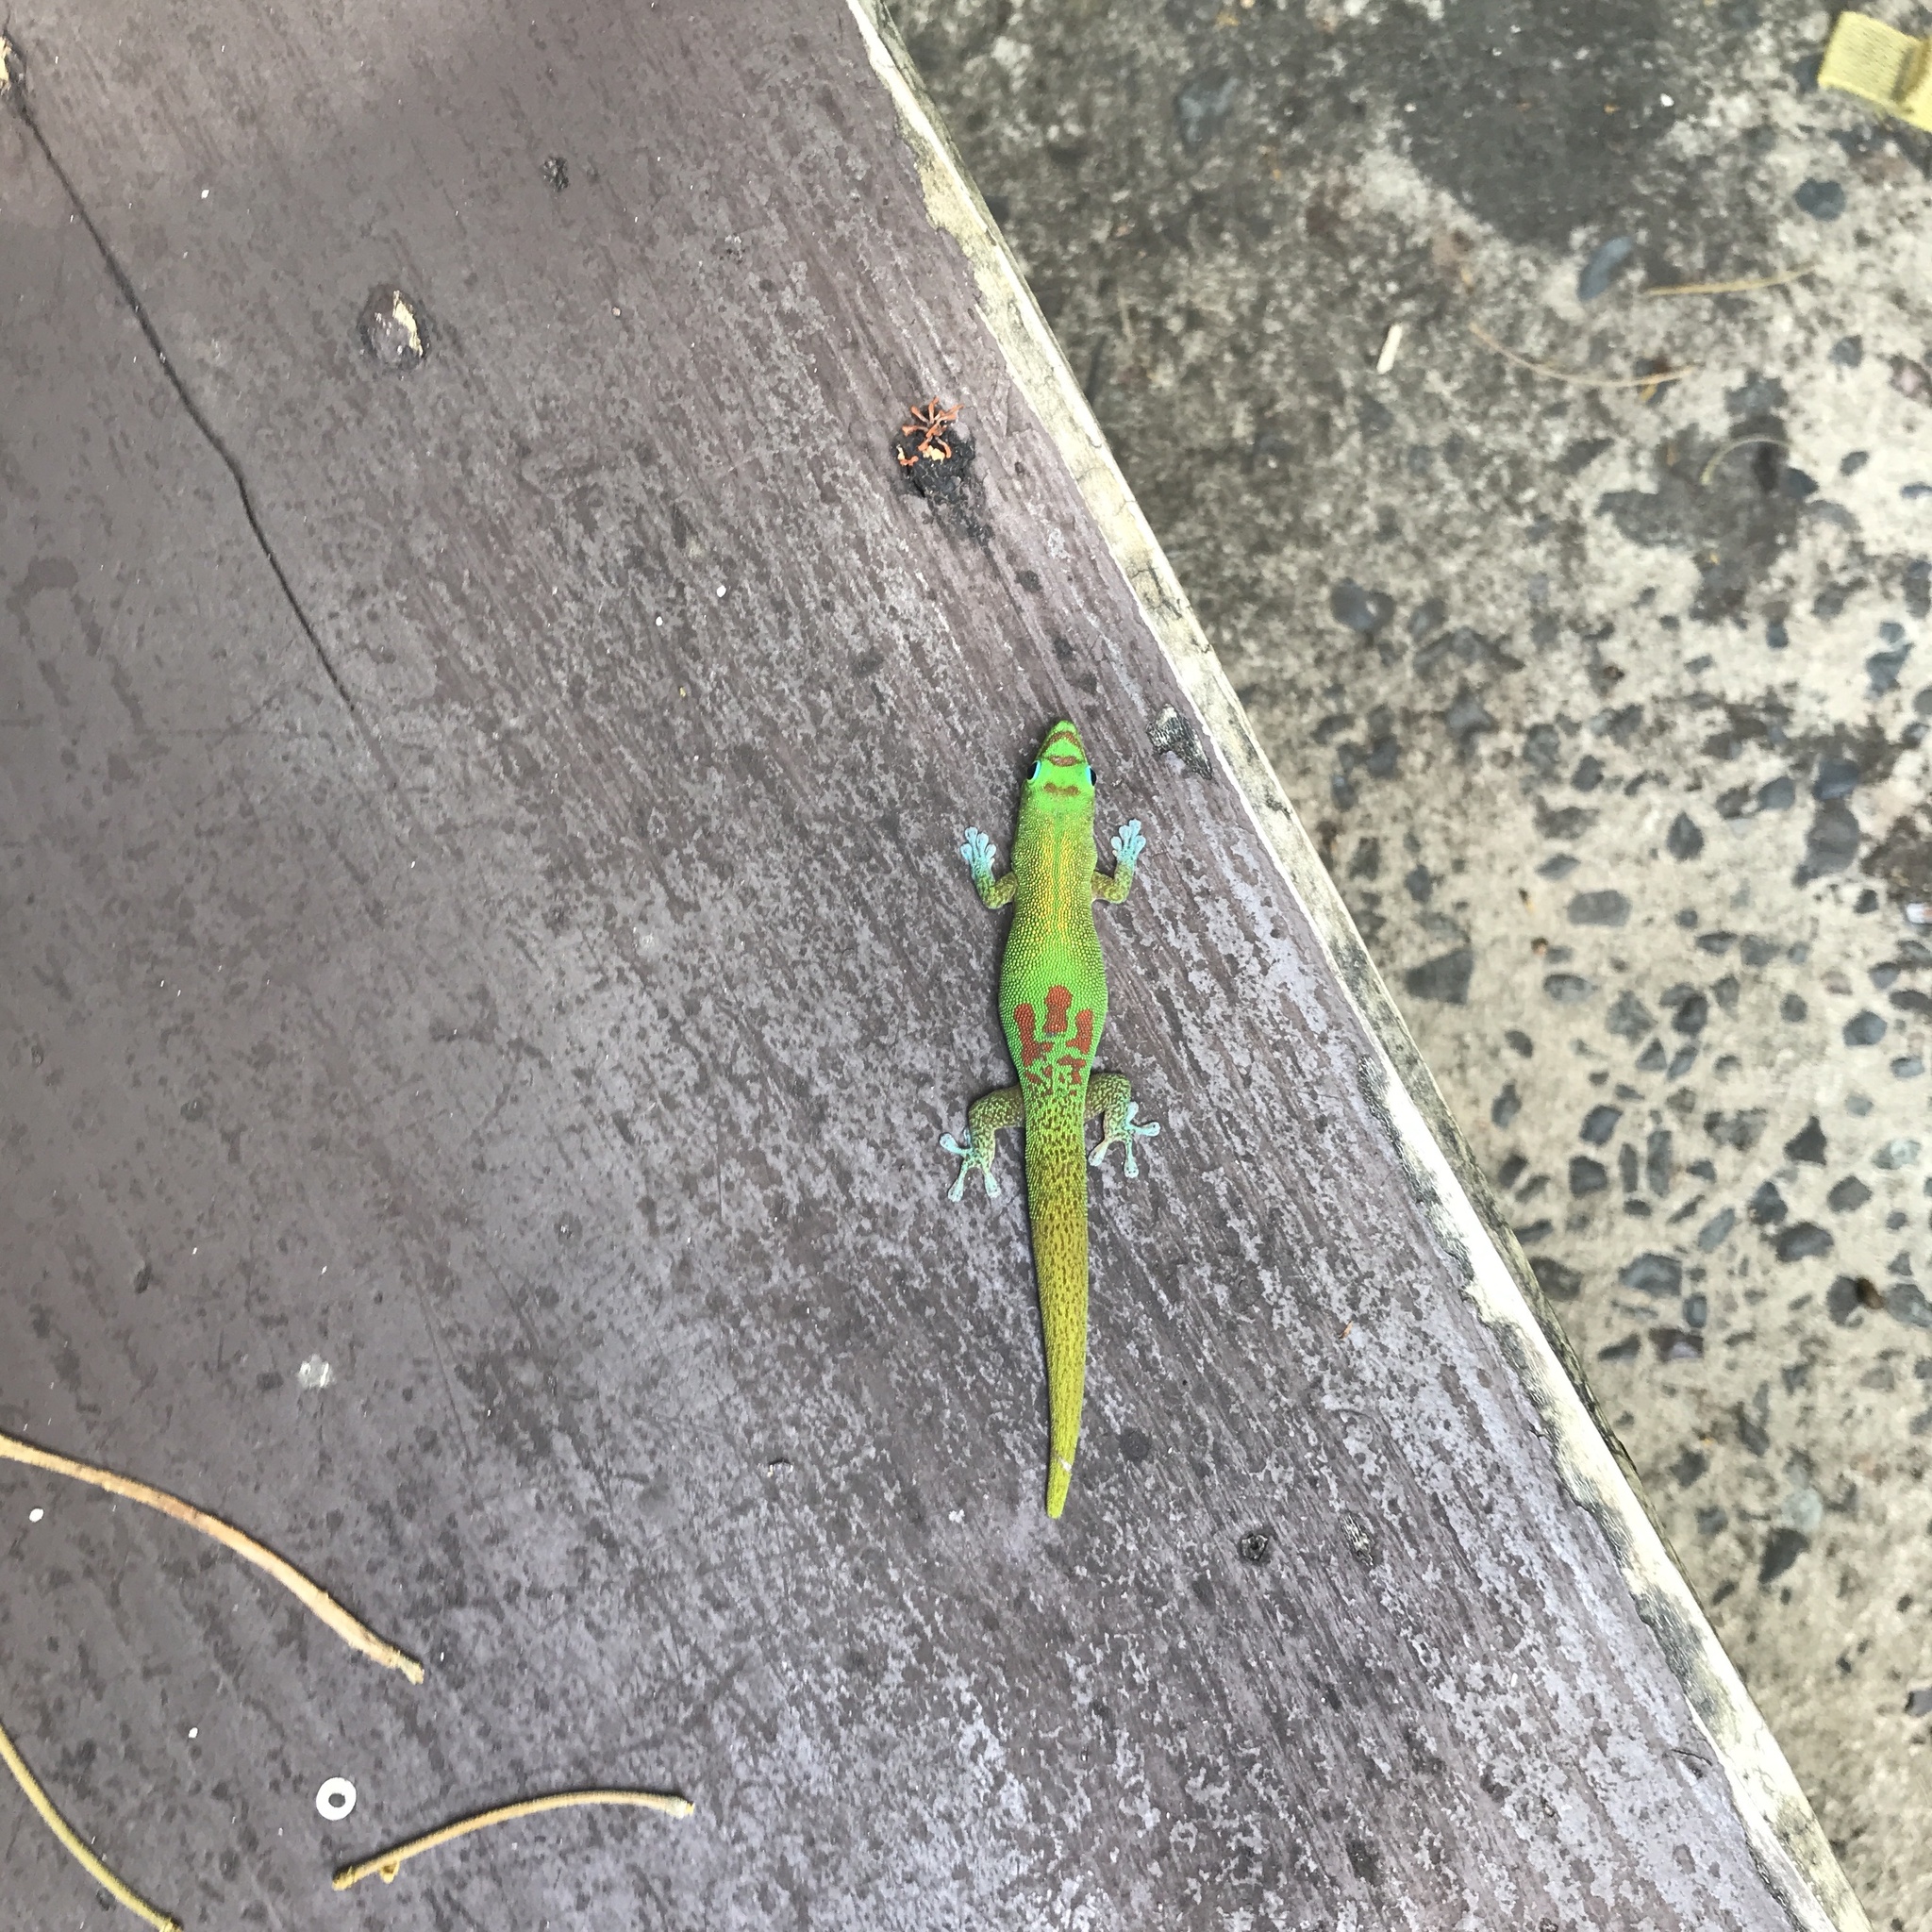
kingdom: Animalia
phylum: Chordata
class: Squamata
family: Gekkonidae
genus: Phelsuma
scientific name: Phelsuma laticauda
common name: Gold dust day gecko
